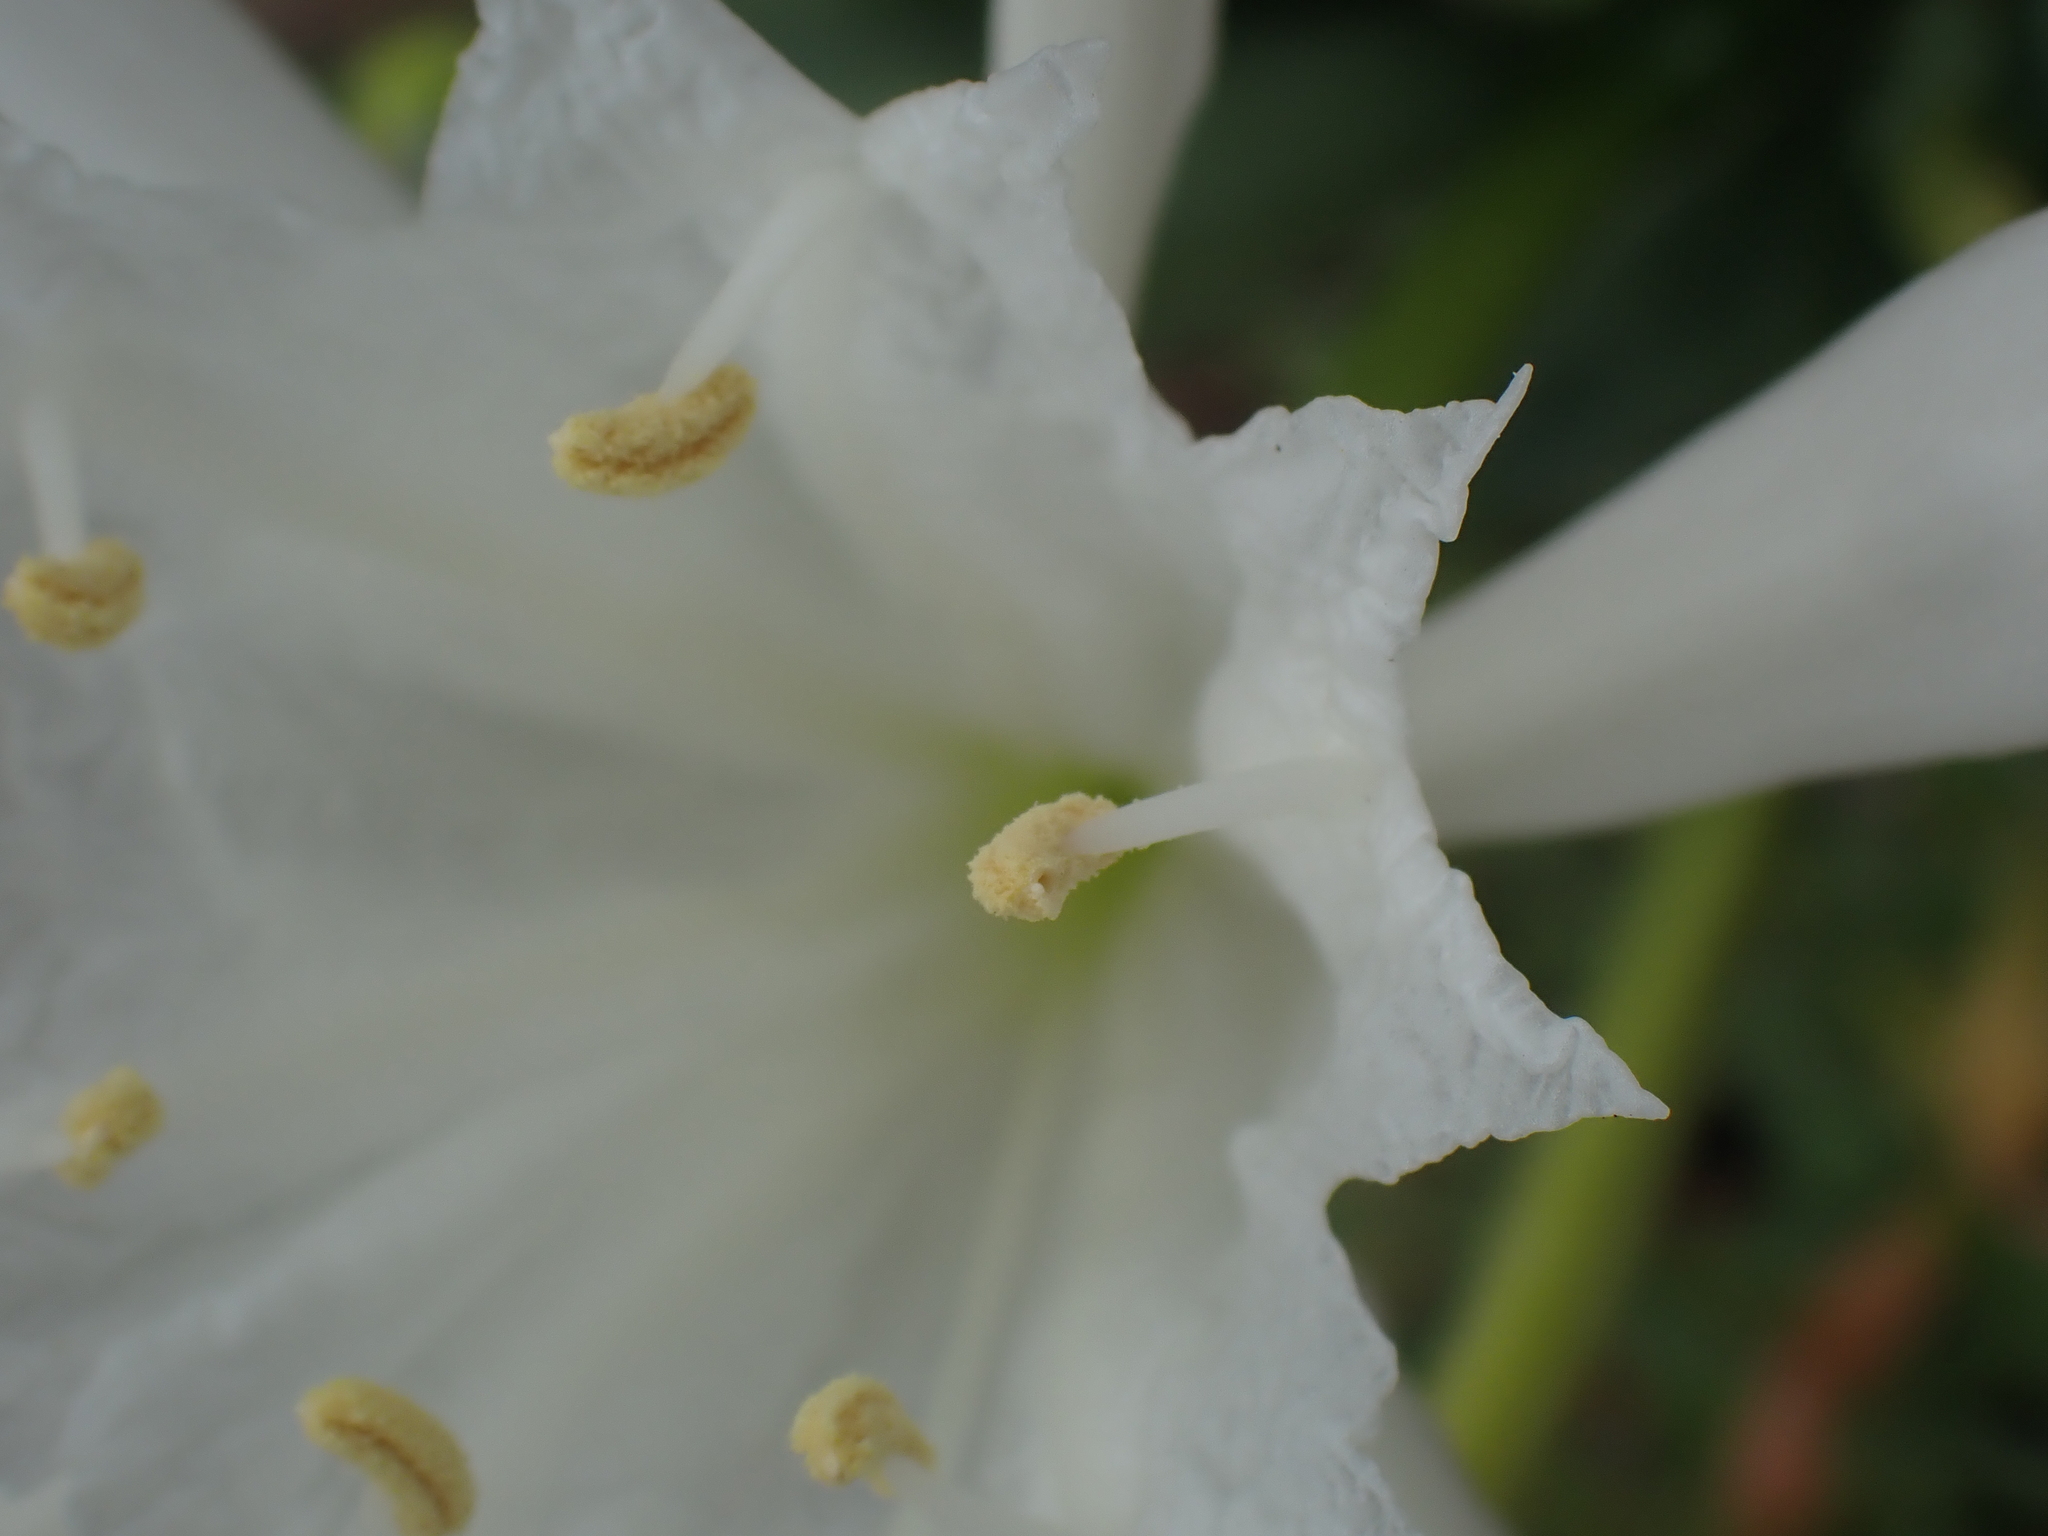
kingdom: Plantae
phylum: Tracheophyta
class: Liliopsida
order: Asparagales
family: Amaryllidaceae
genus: Pancratium
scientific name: Pancratium maritimum
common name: Sea-daffodil
